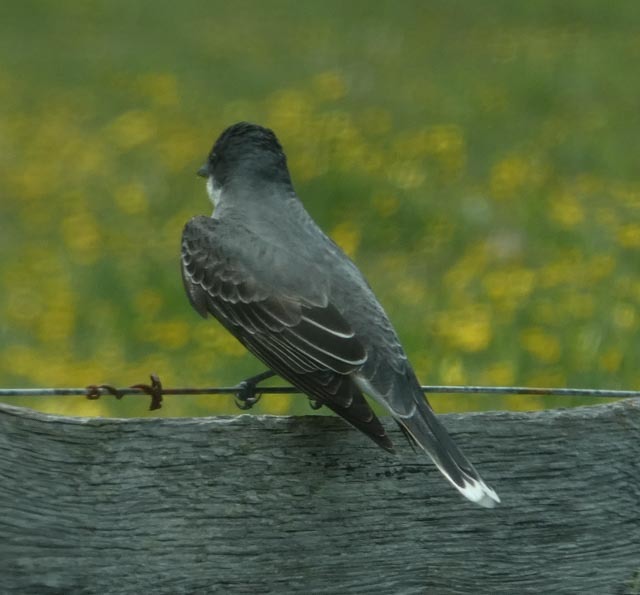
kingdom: Animalia
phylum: Chordata
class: Aves
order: Passeriformes
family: Tyrannidae
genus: Tyrannus
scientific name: Tyrannus tyrannus
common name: Eastern kingbird
